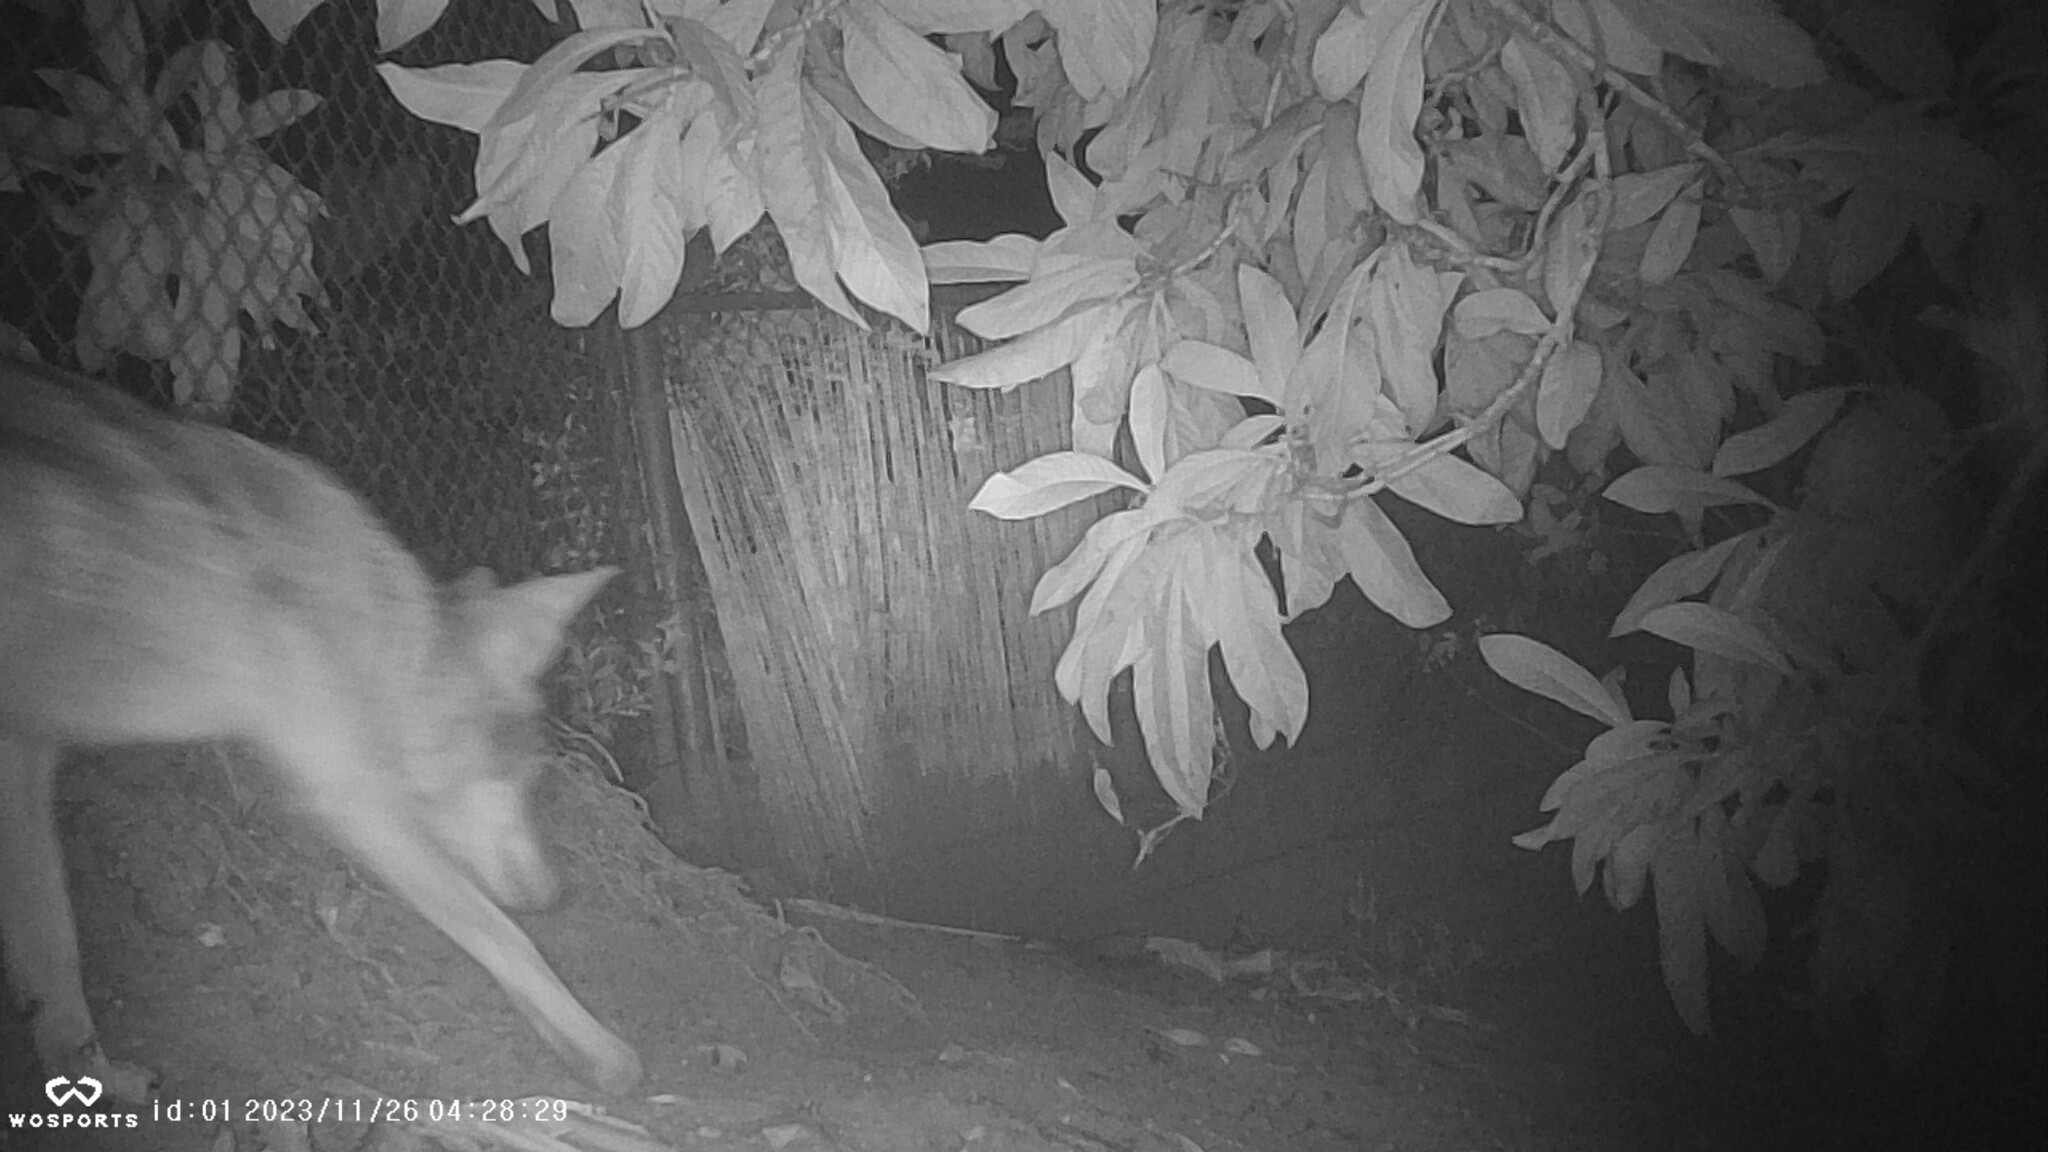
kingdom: Animalia
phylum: Chordata
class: Mammalia
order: Carnivora
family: Canidae
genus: Canis
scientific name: Canis latrans
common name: Coyote
